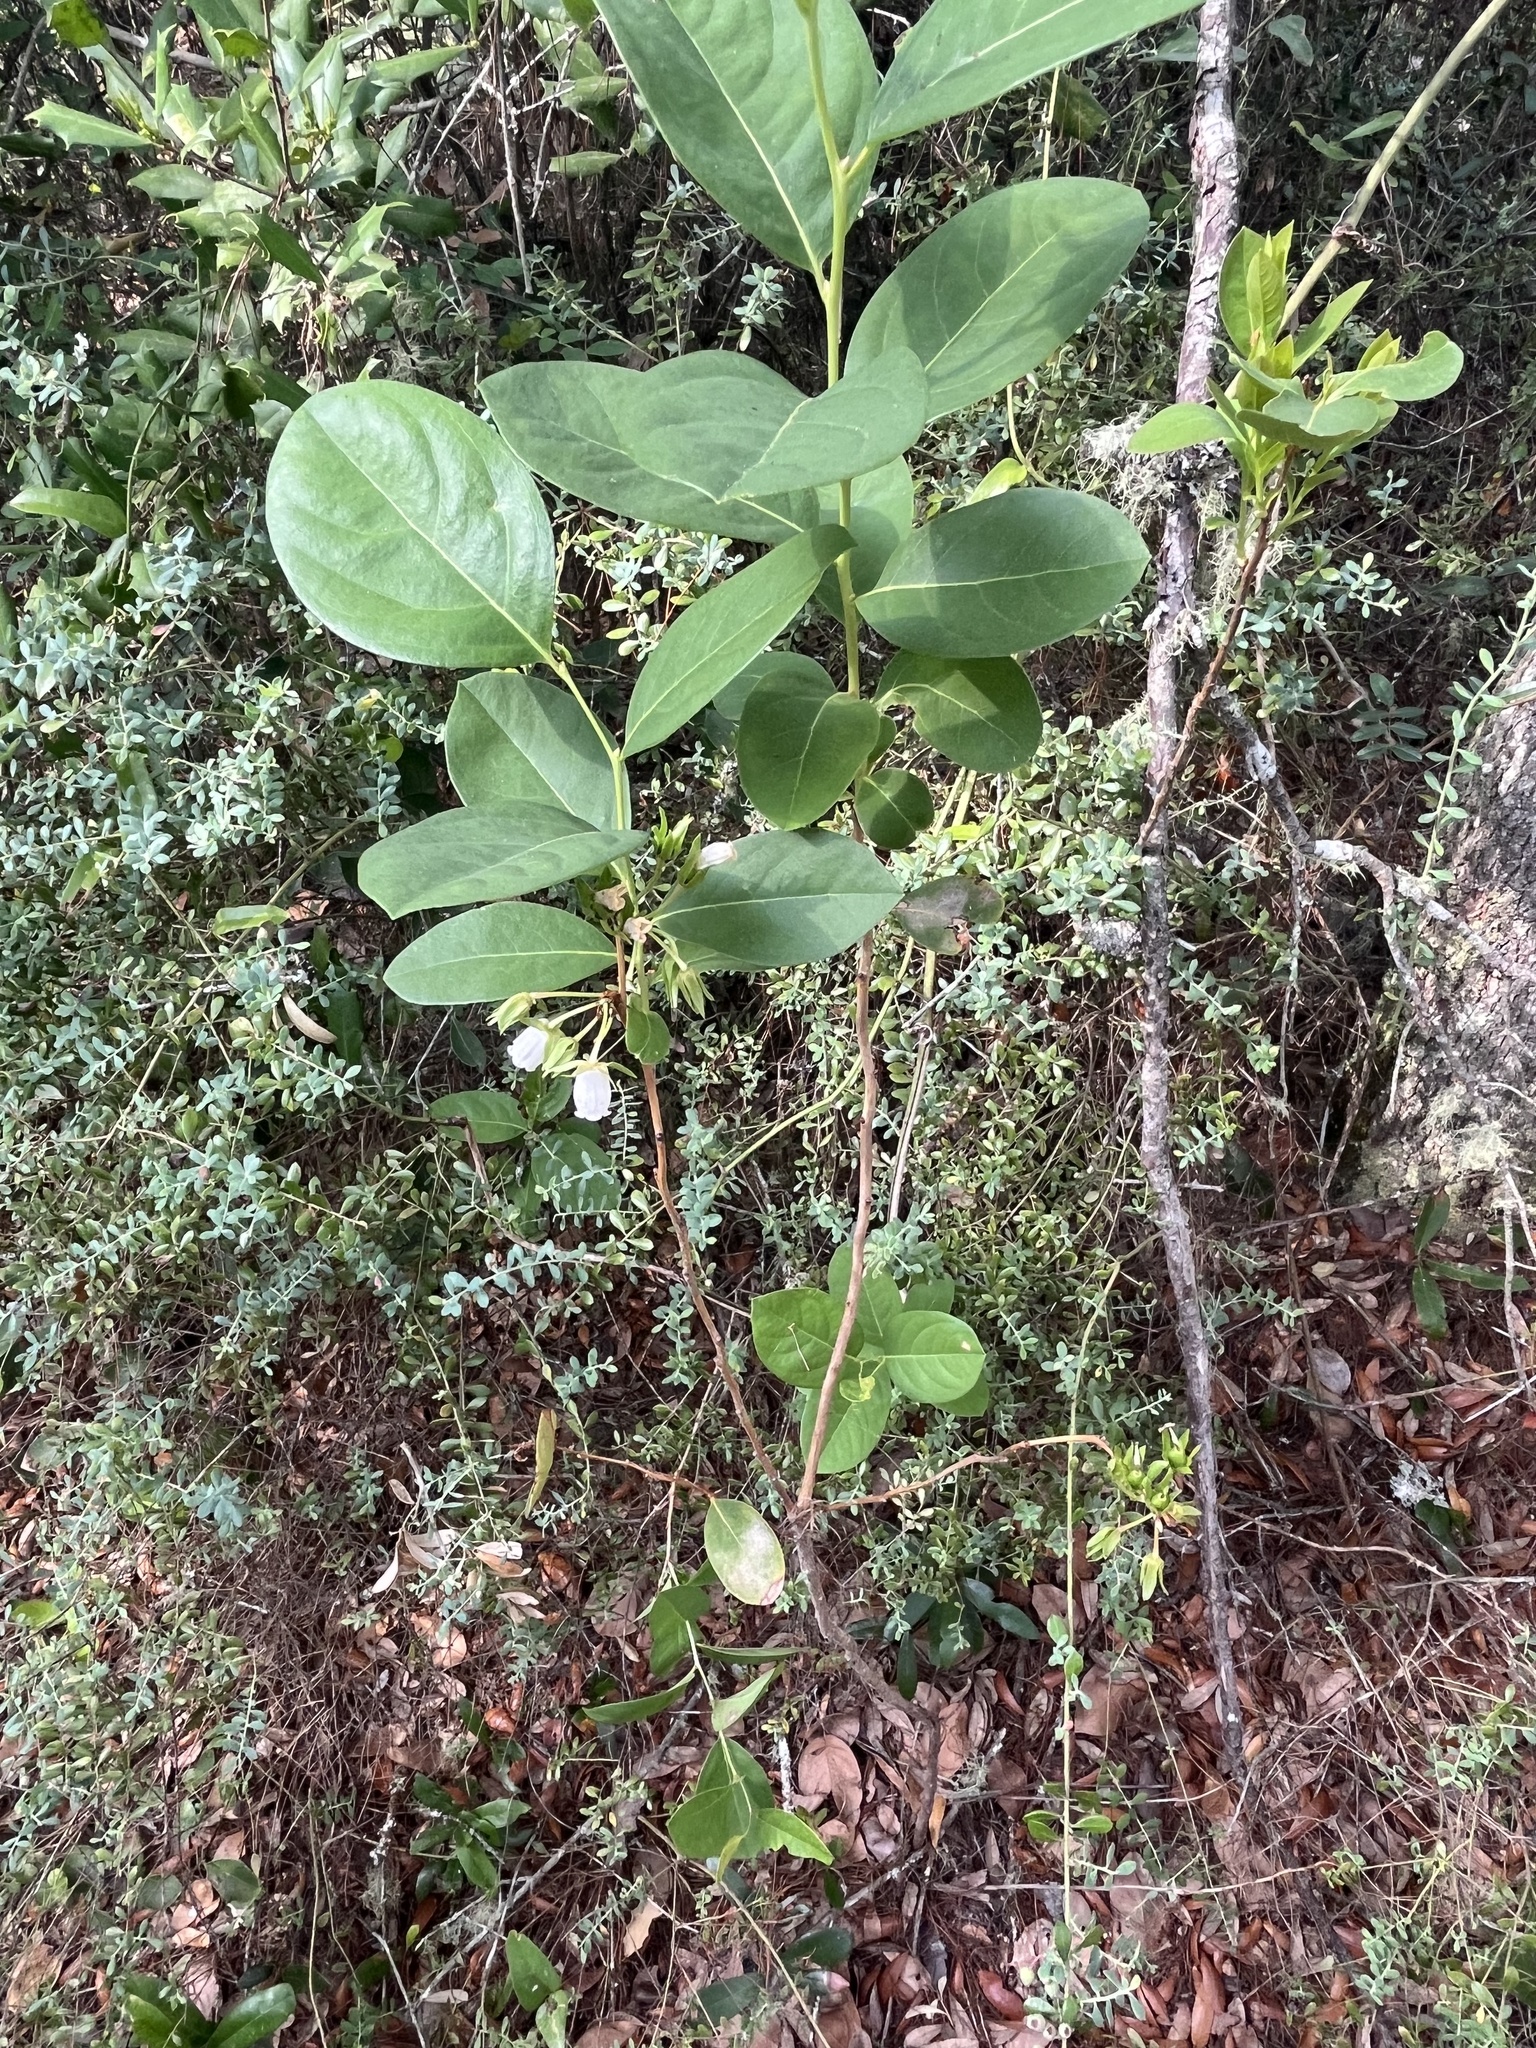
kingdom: Plantae
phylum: Tracheophyta
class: Magnoliopsida
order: Ericales
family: Ericaceae
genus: Lyonia
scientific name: Lyonia mariana
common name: Staggerbush
